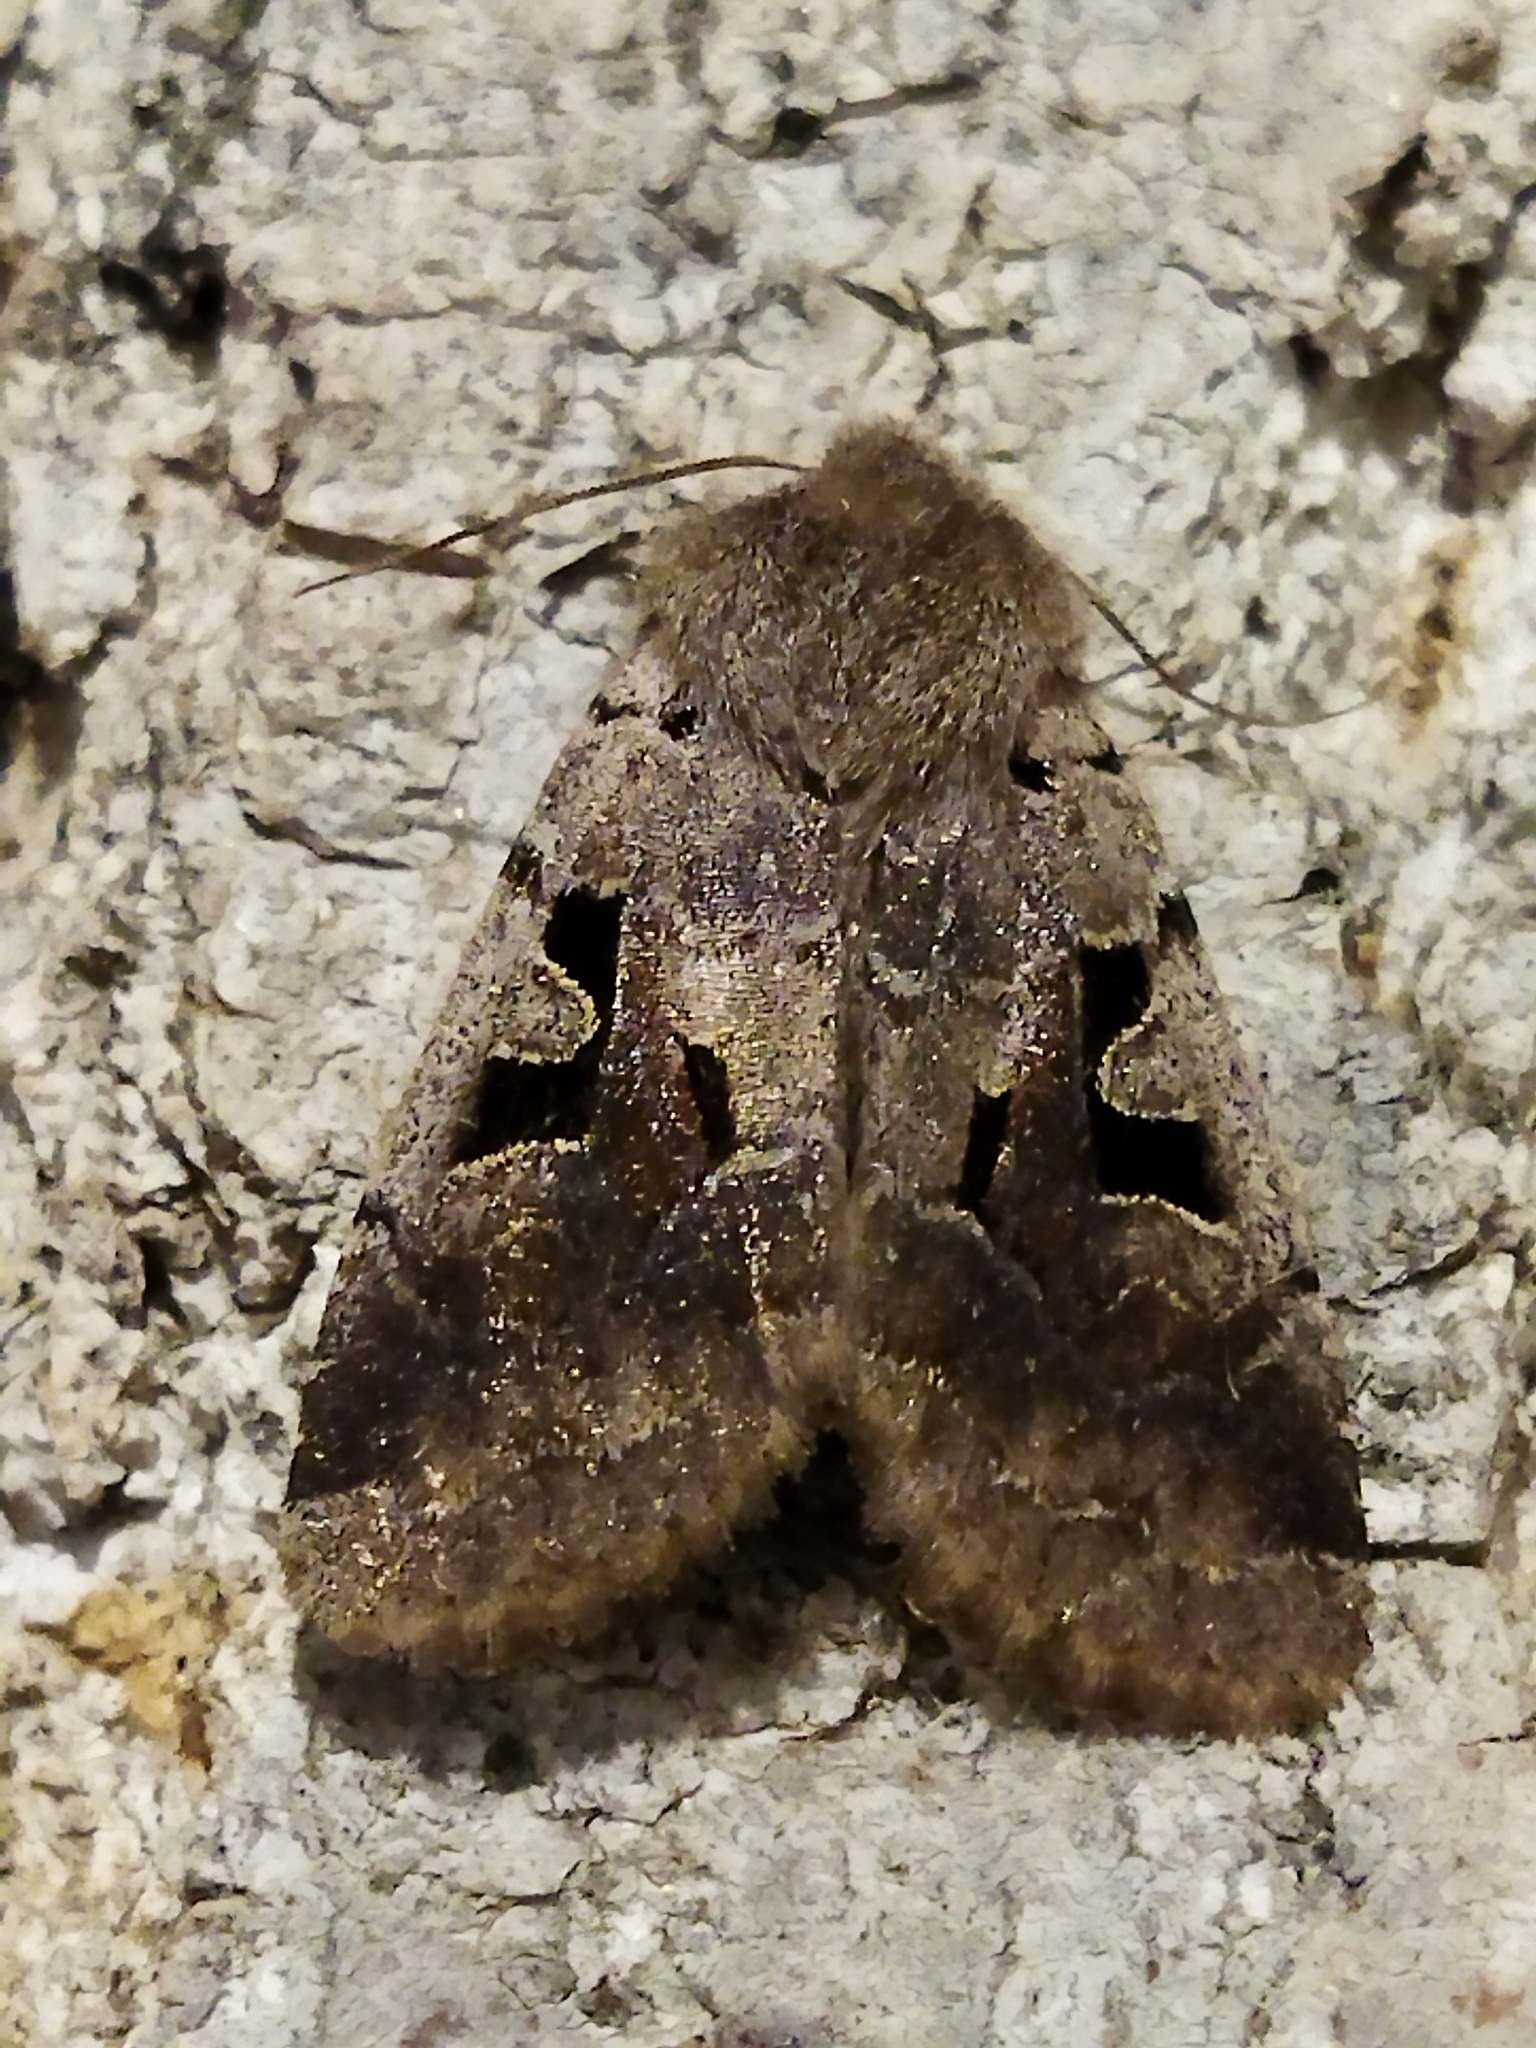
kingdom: Animalia
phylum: Arthropoda
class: Insecta
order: Lepidoptera
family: Noctuidae
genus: Orthosia
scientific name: Orthosia gothica
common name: Hebrew character
